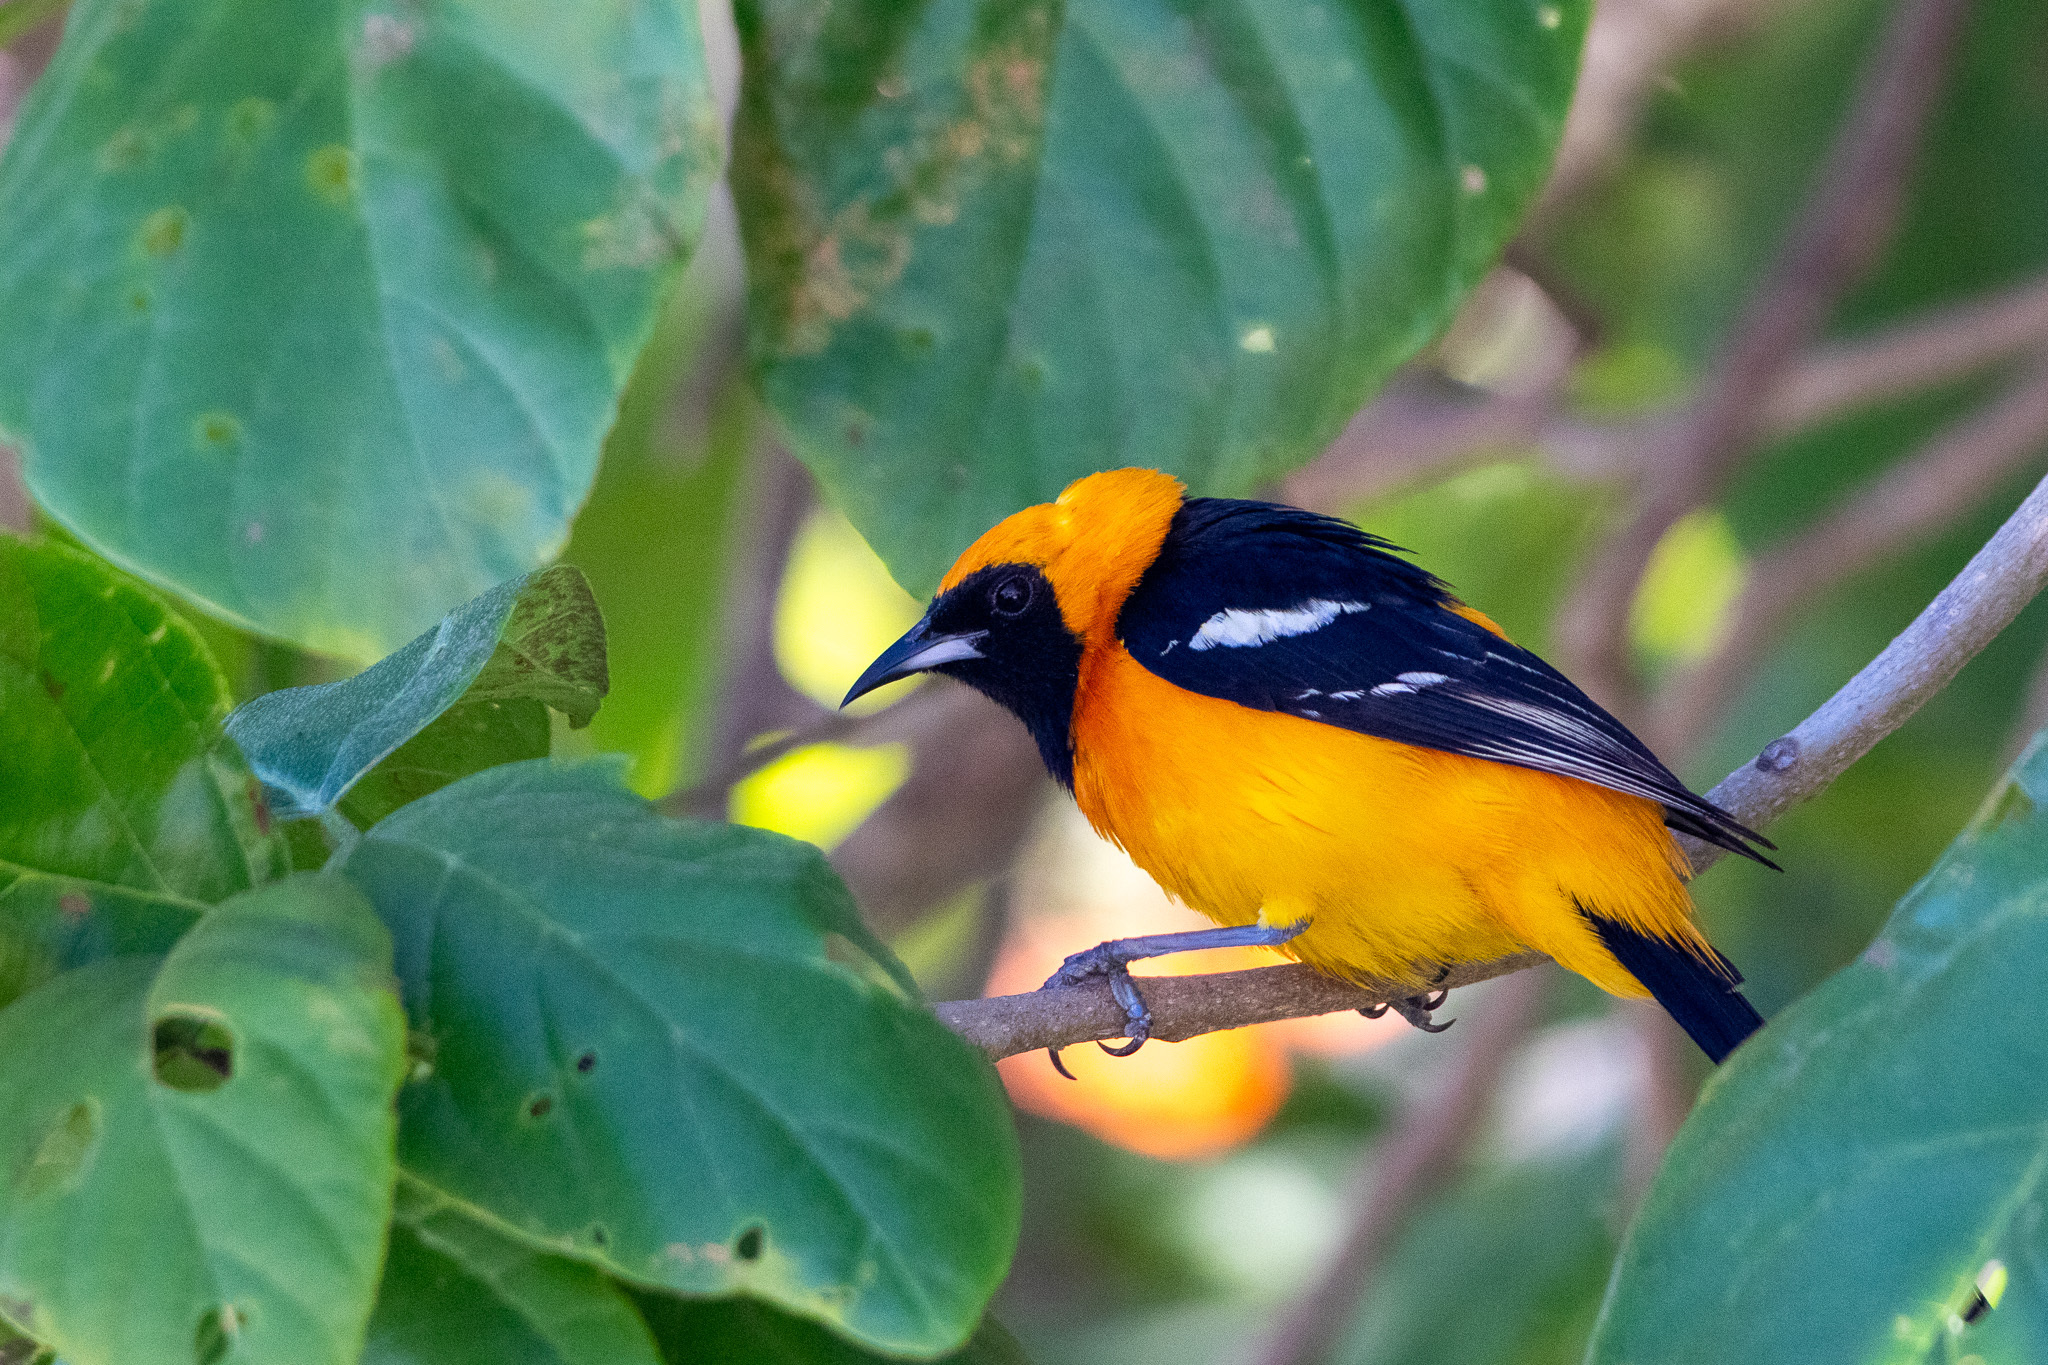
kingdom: Animalia
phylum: Chordata
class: Aves
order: Passeriformes
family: Icteridae
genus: Icterus
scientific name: Icterus cucullatus
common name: Hooded oriole
